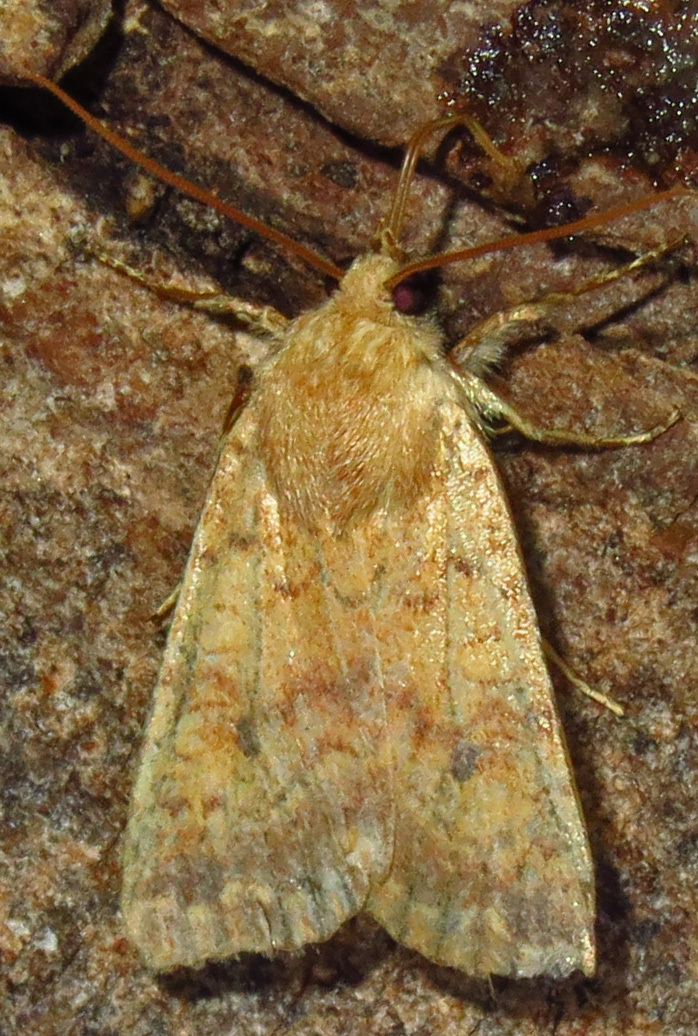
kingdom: Animalia
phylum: Arthropoda
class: Insecta
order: Lepidoptera
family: Noctuidae
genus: Agrochola
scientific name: Agrochola bicolorago
